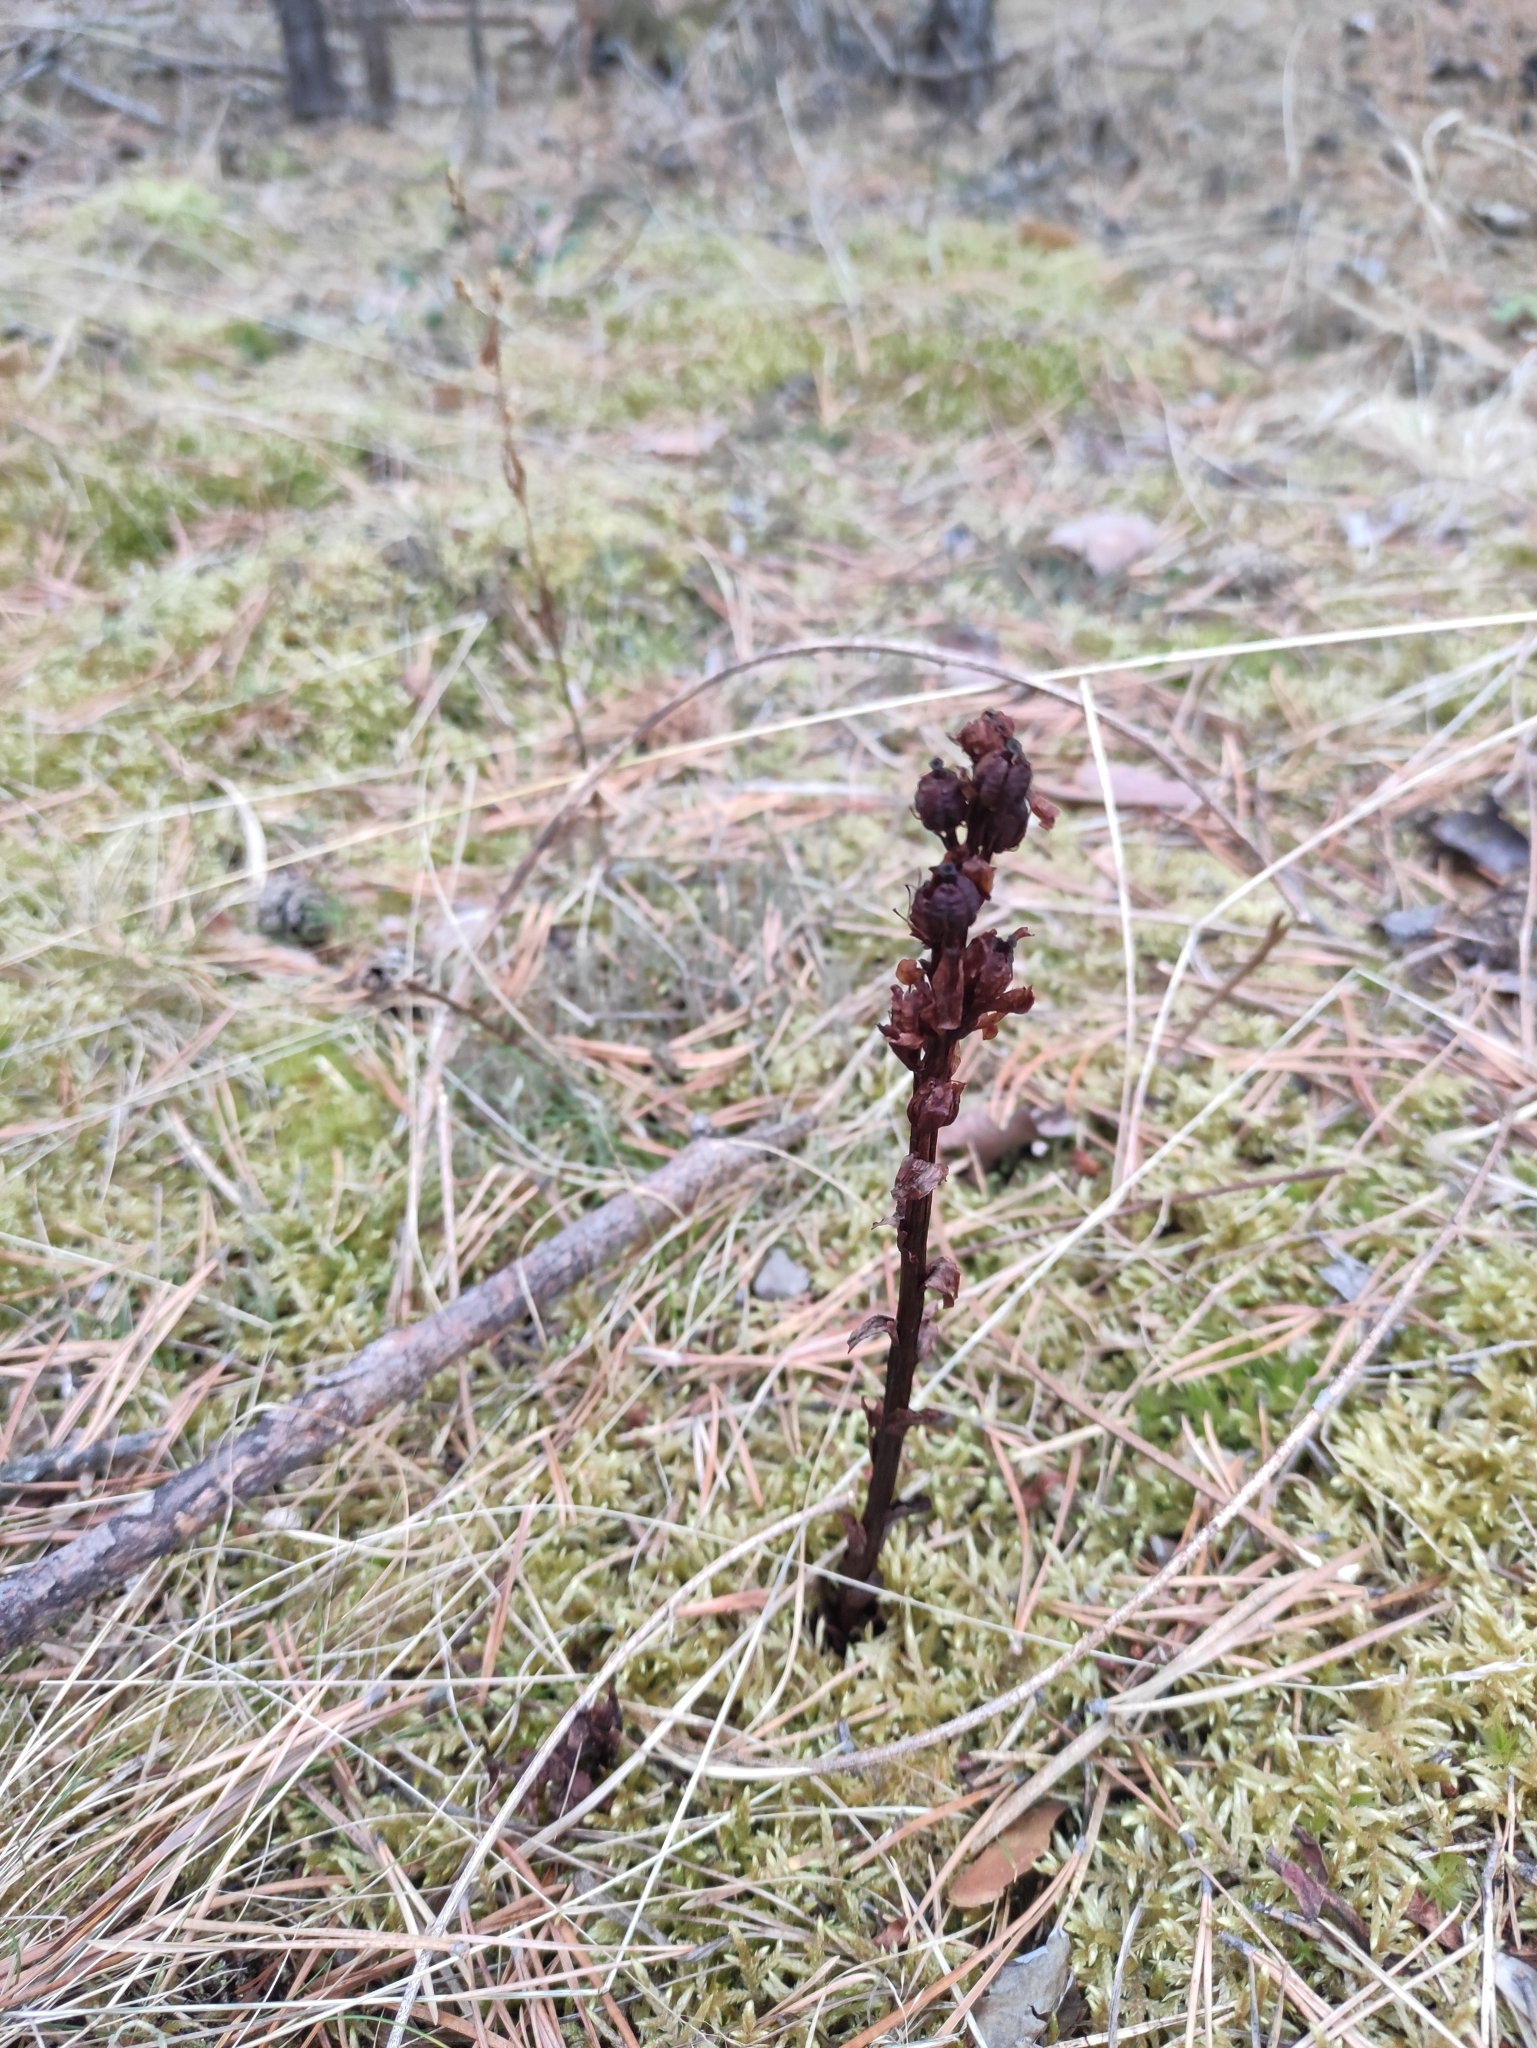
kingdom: Plantae
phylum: Tracheophyta
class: Magnoliopsida
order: Ericales
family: Ericaceae
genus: Hypopitys
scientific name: Hypopitys monotropa
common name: Yellow bird's-nest
